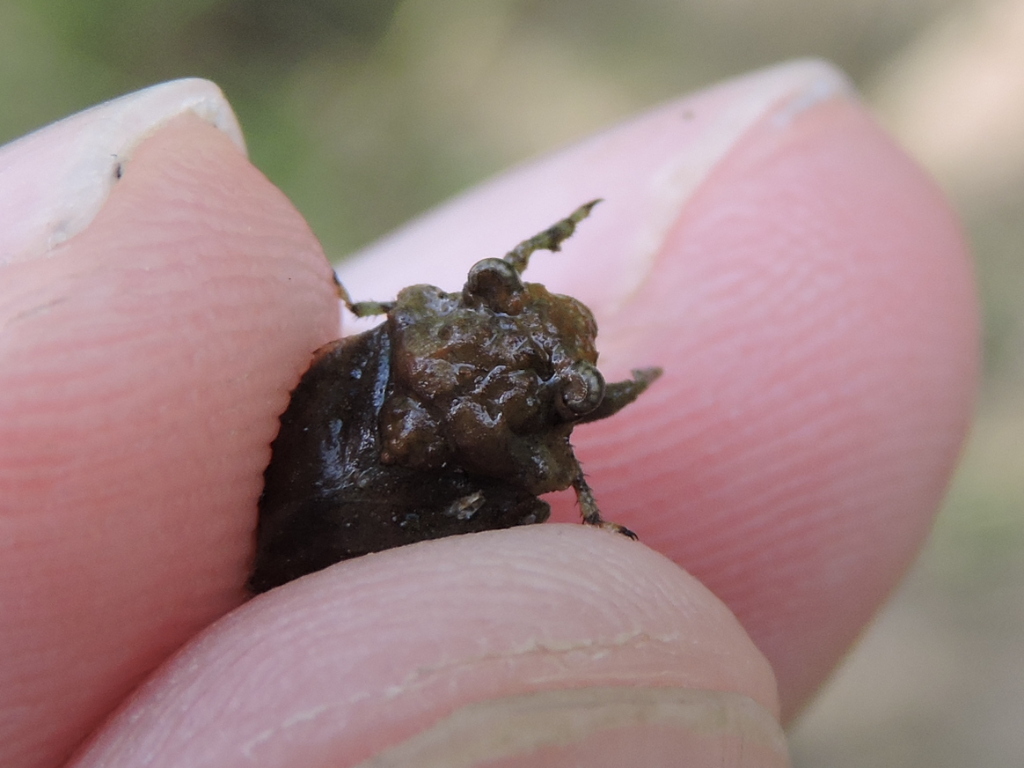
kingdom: Animalia
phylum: Arthropoda
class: Insecta
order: Hemiptera
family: Gelastocoridae
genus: Gelastocoris
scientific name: Gelastocoris oculatus
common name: Toad bug
